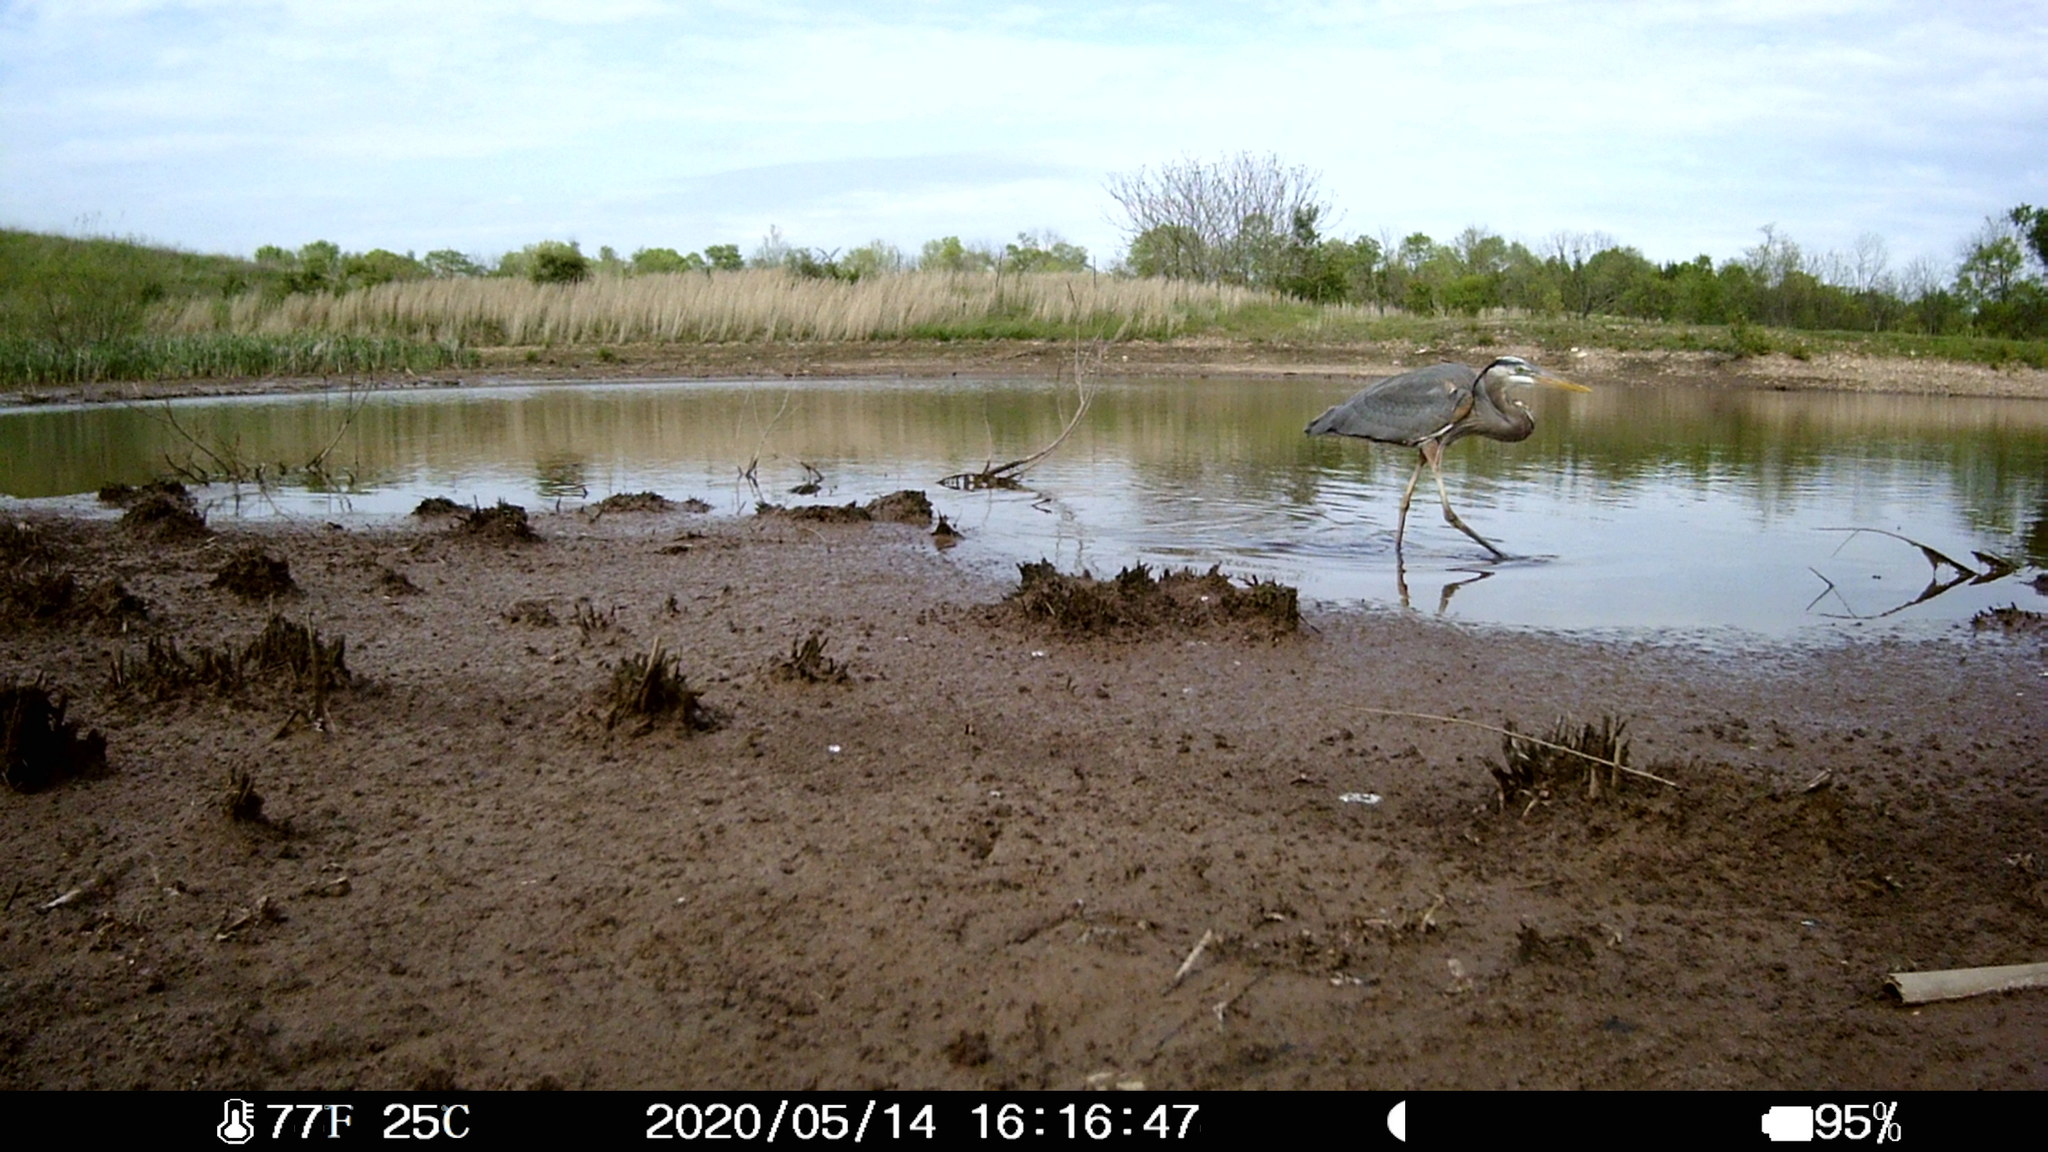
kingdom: Animalia
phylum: Chordata
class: Aves
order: Pelecaniformes
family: Ardeidae
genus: Ardea
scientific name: Ardea herodias
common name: Great blue heron
